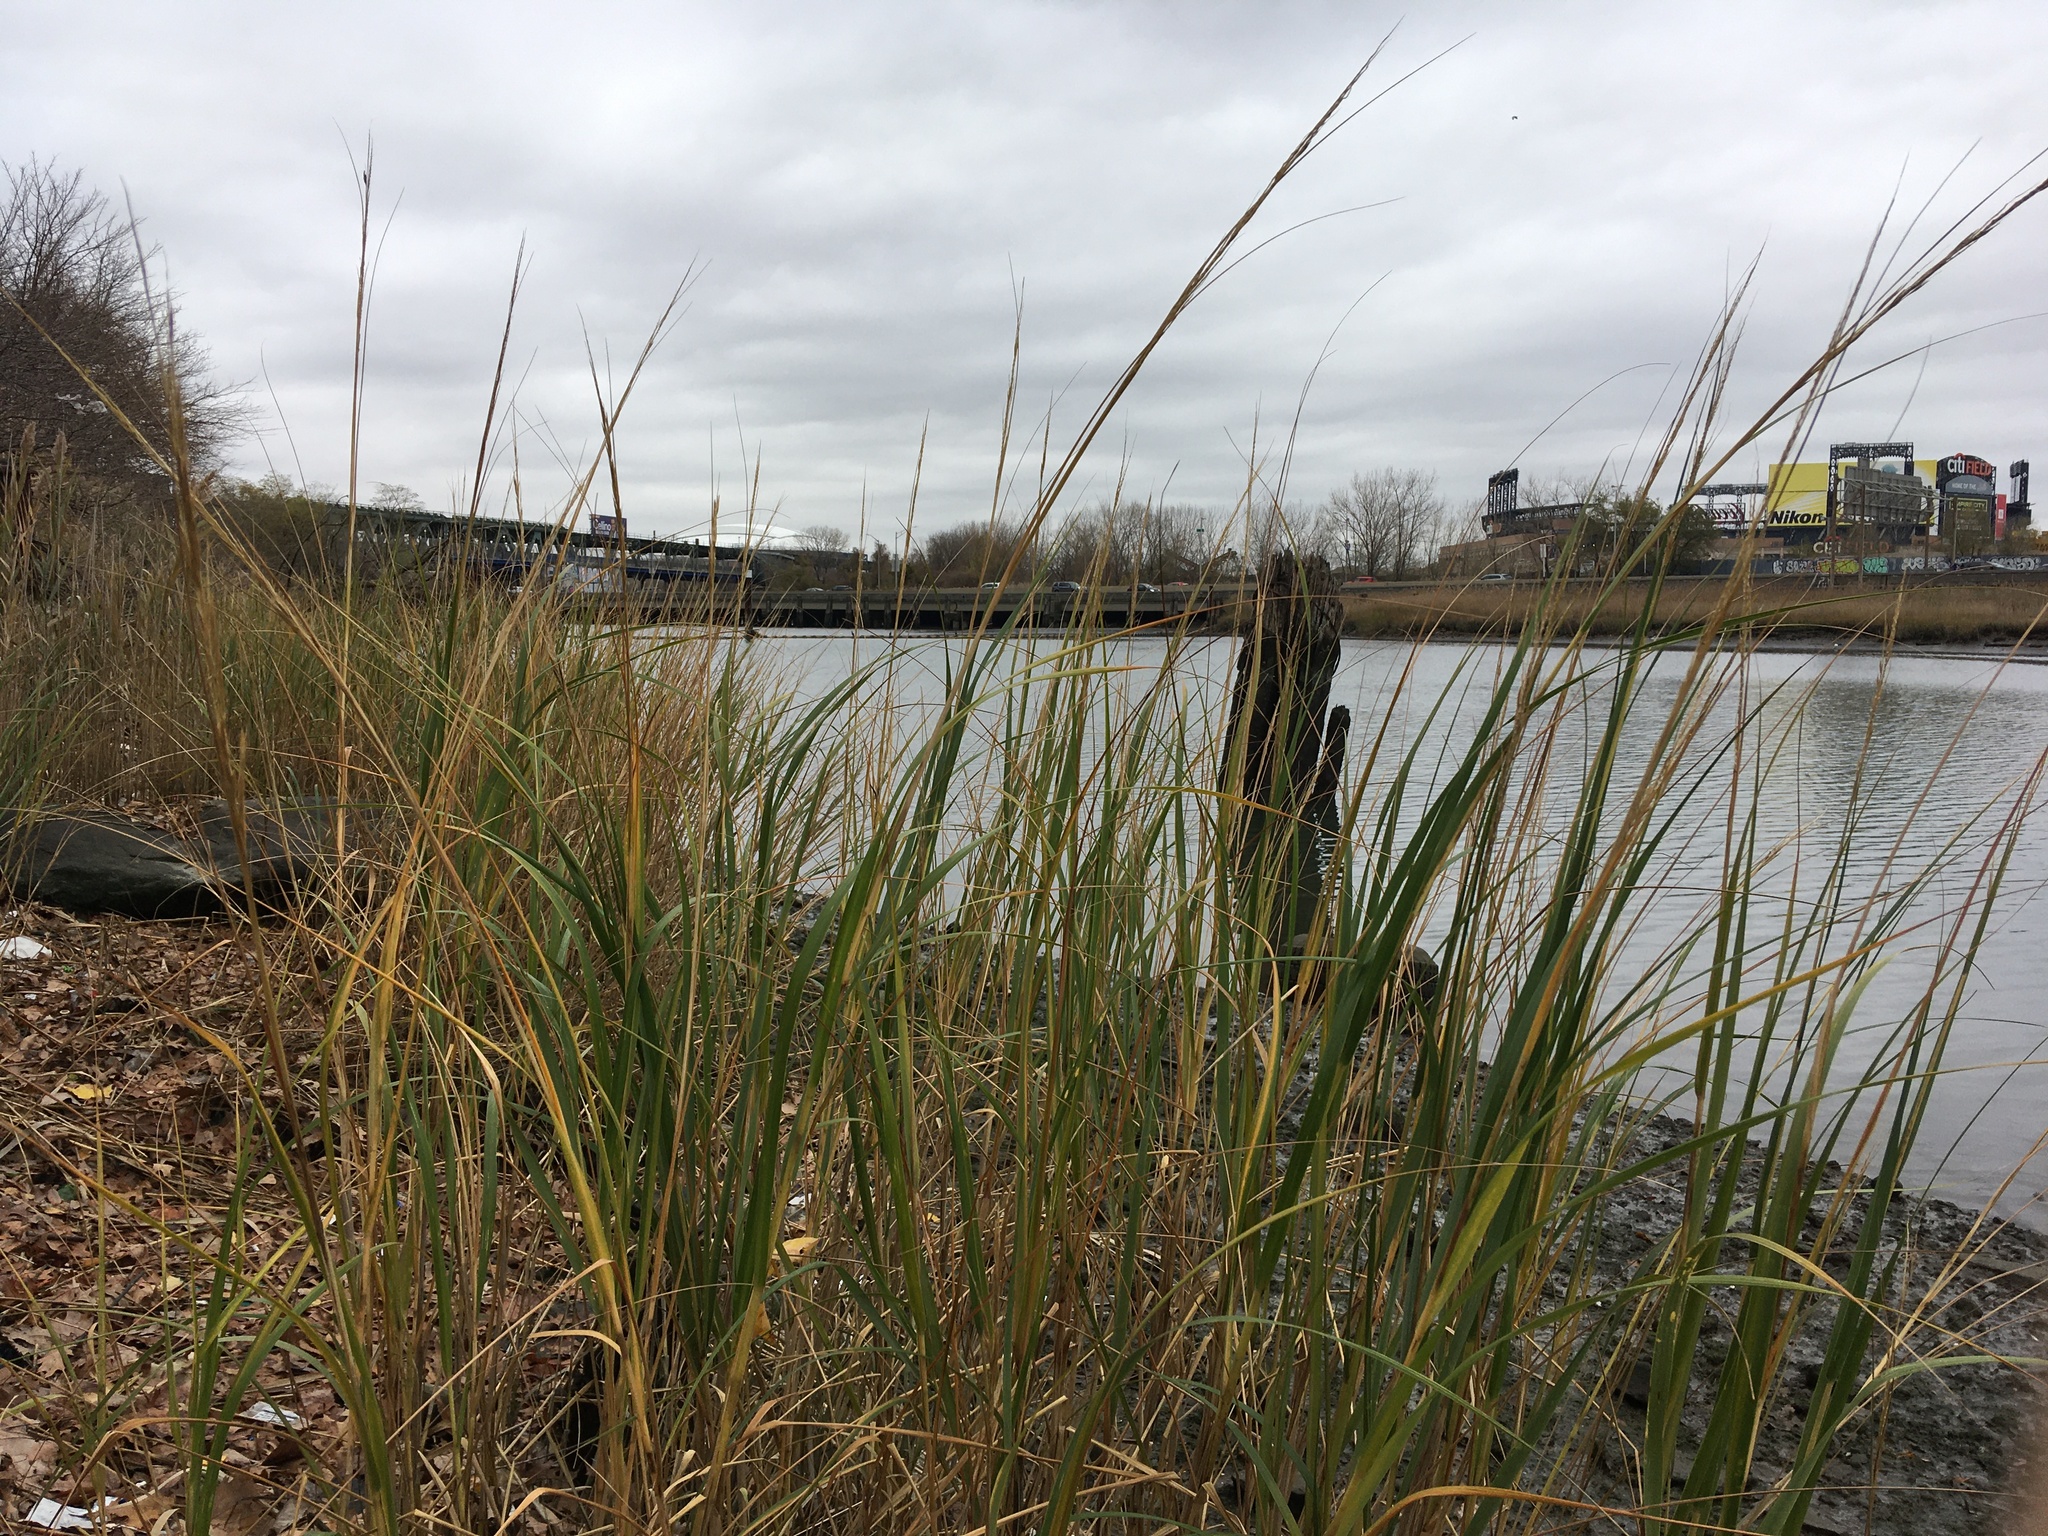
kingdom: Plantae
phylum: Tracheophyta
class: Liliopsida
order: Poales
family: Poaceae
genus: Sporobolus
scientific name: Sporobolus alterniflorus
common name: Atlantic cordgrass
